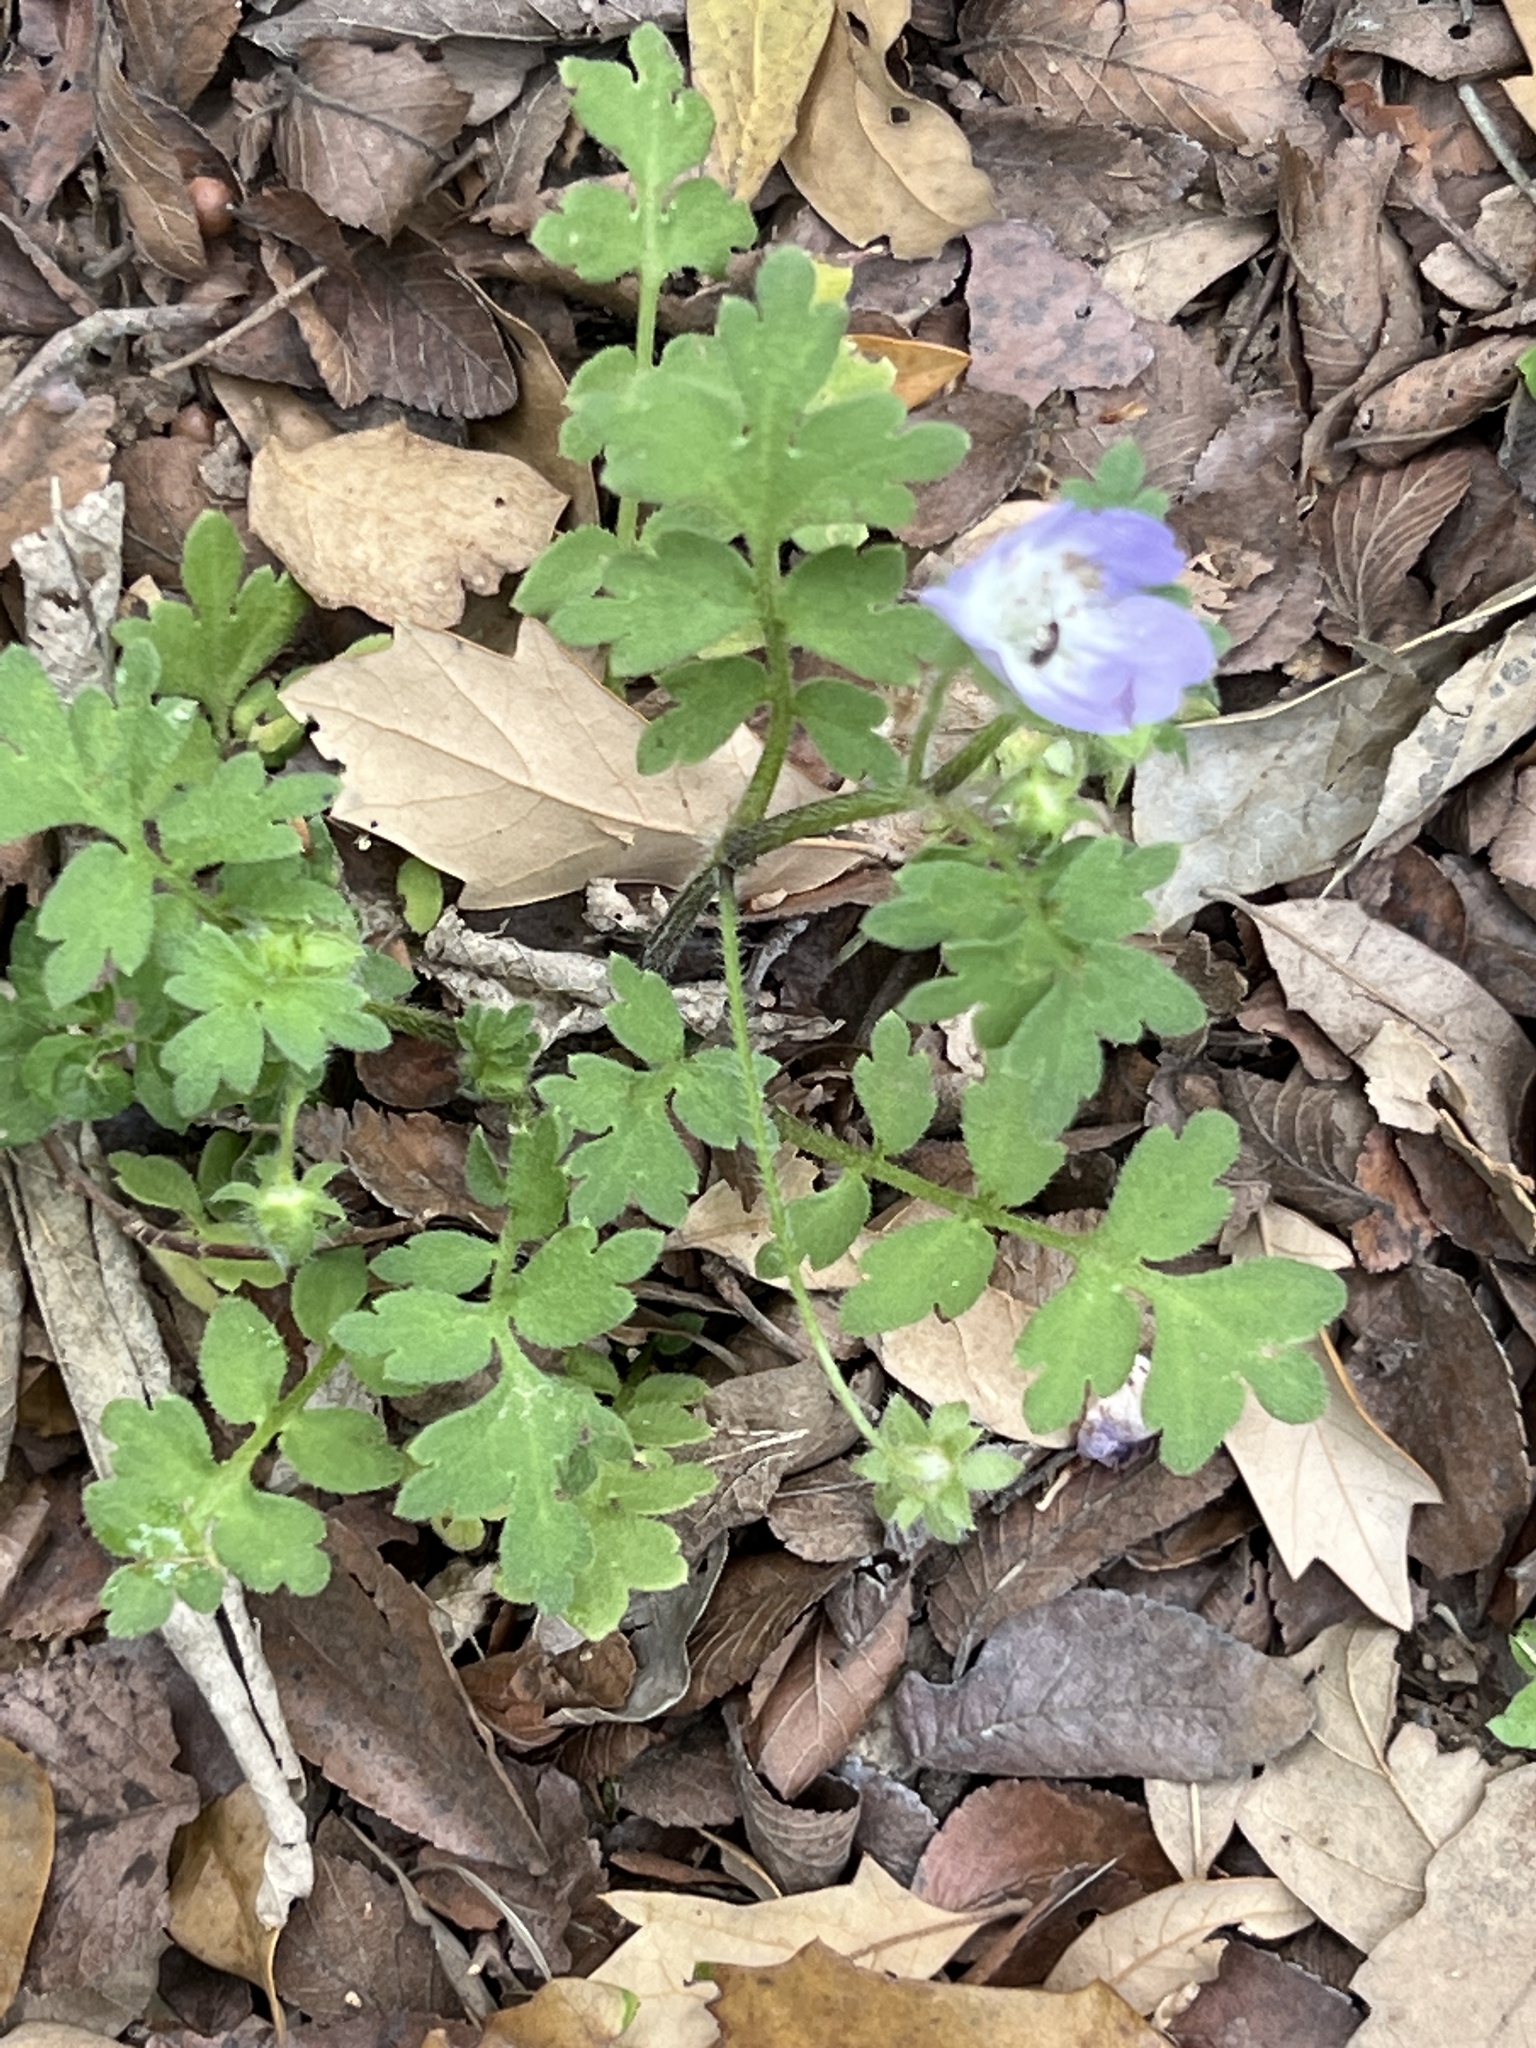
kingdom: Plantae
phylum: Tracheophyta
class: Magnoliopsida
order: Boraginales
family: Hydrophyllaceae
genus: Nemophila
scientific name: Nemophila phacelioides
